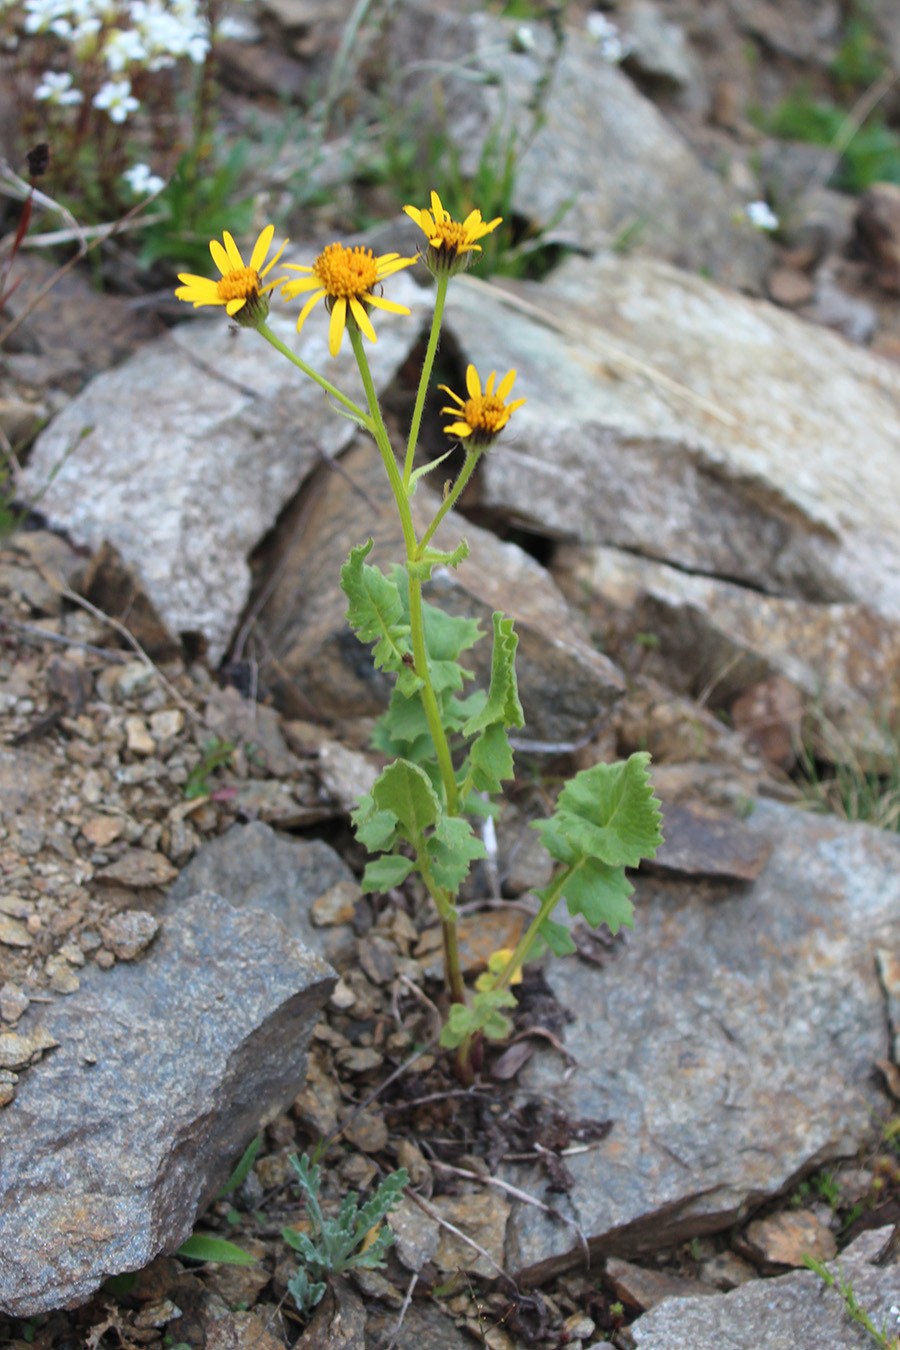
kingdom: Plantae
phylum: Tracheophyta
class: Magnoliopsida
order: Asterales
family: Asteraceae
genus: Turanecio
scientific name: Turanecio taraxacifolius
